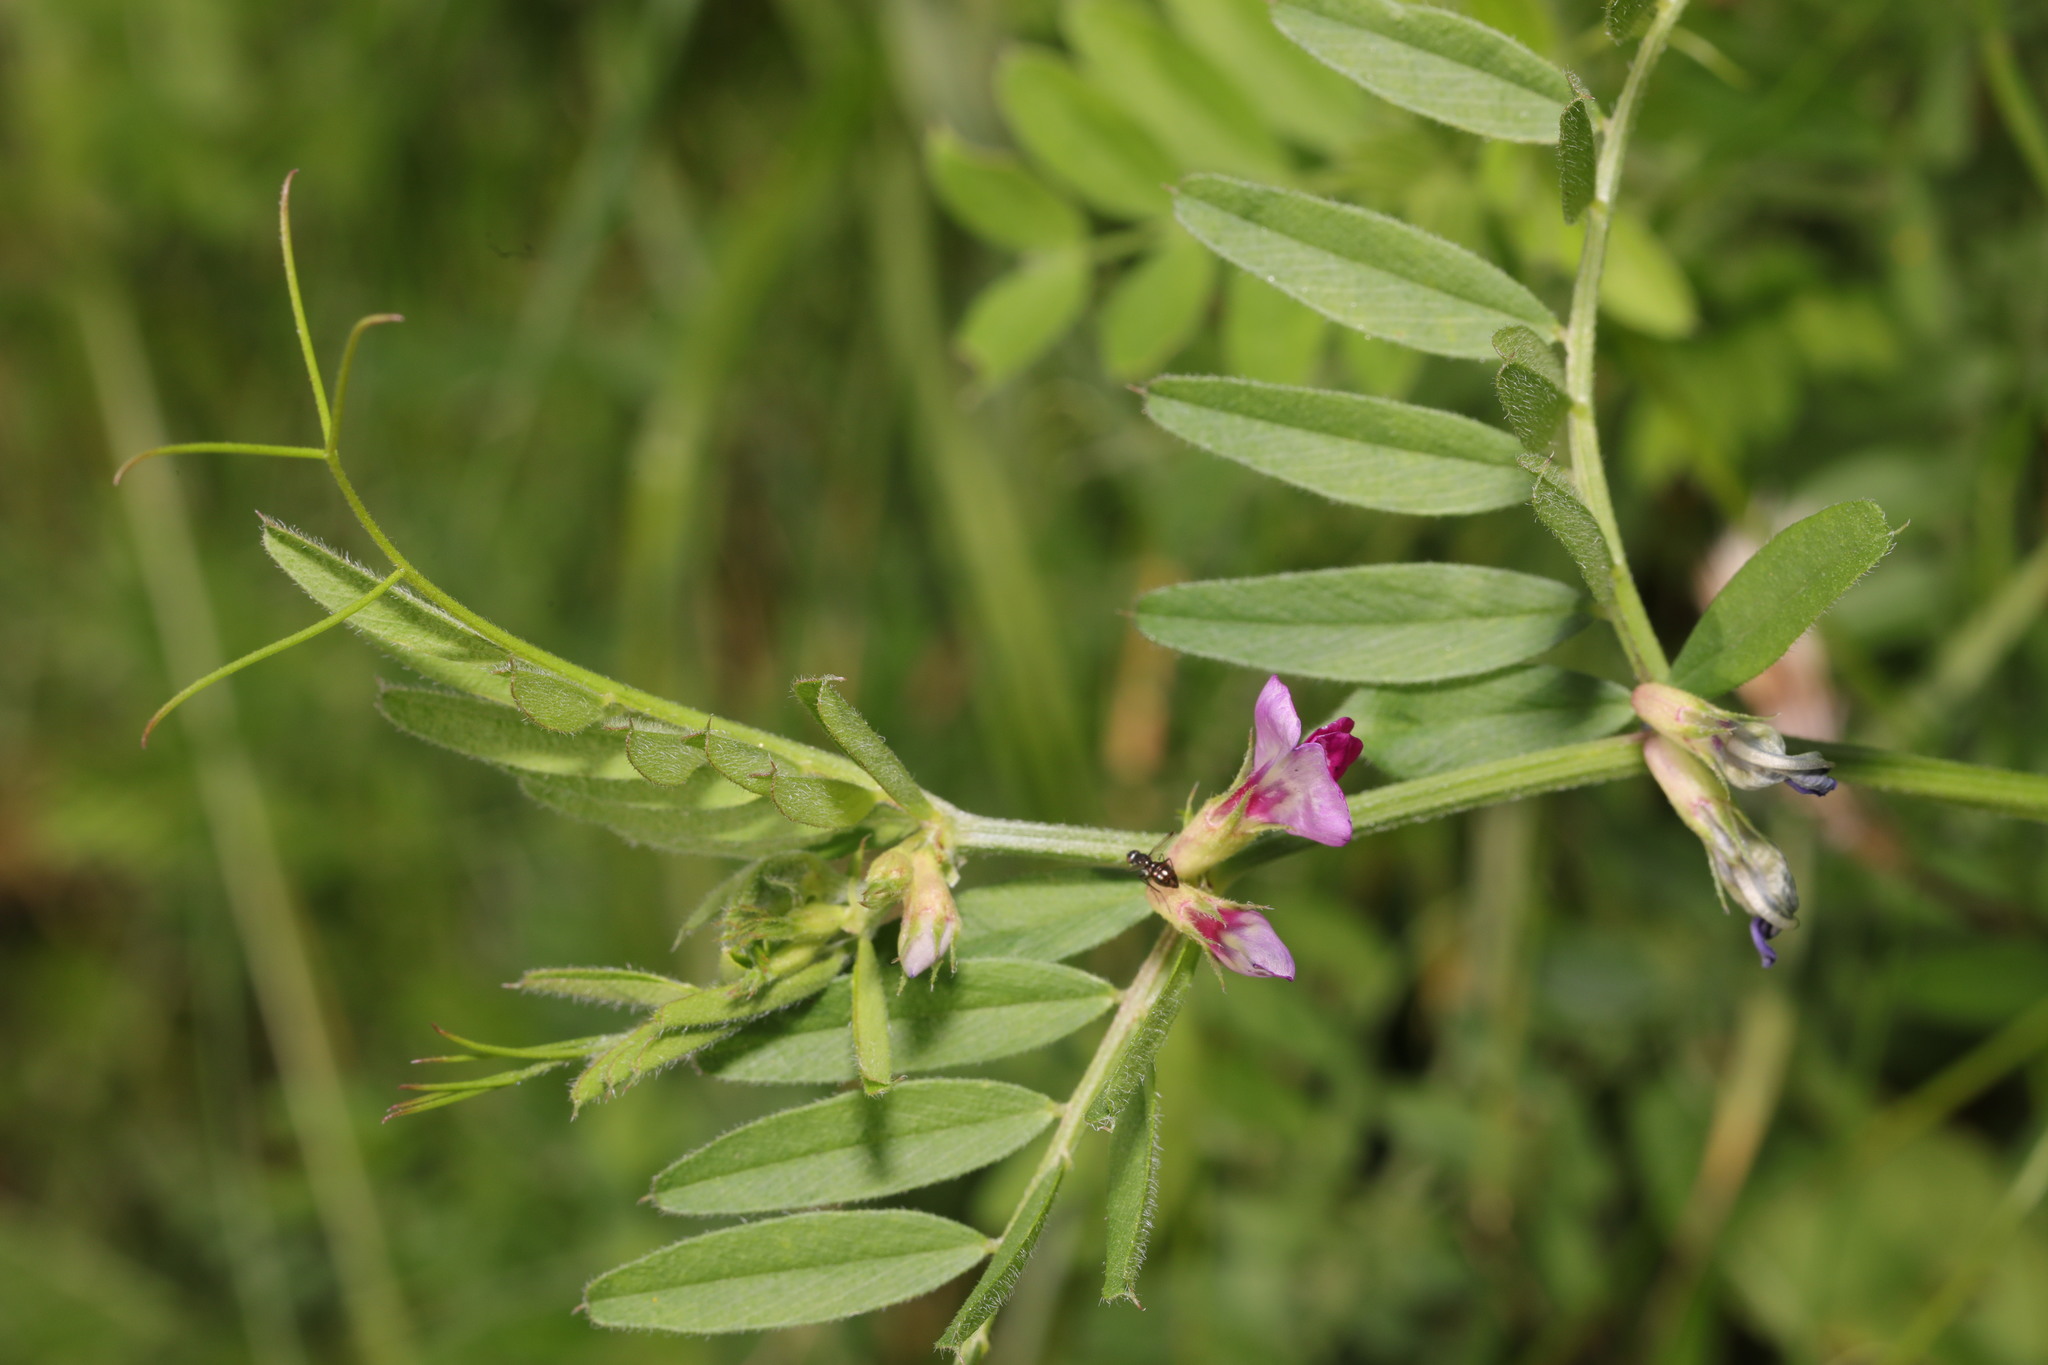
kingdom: Plantae
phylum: Tracheophyta
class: Magnoliopsida
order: Fabales
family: Fabaceae
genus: Vicia
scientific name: Vicia sativa
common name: Garden vetch
